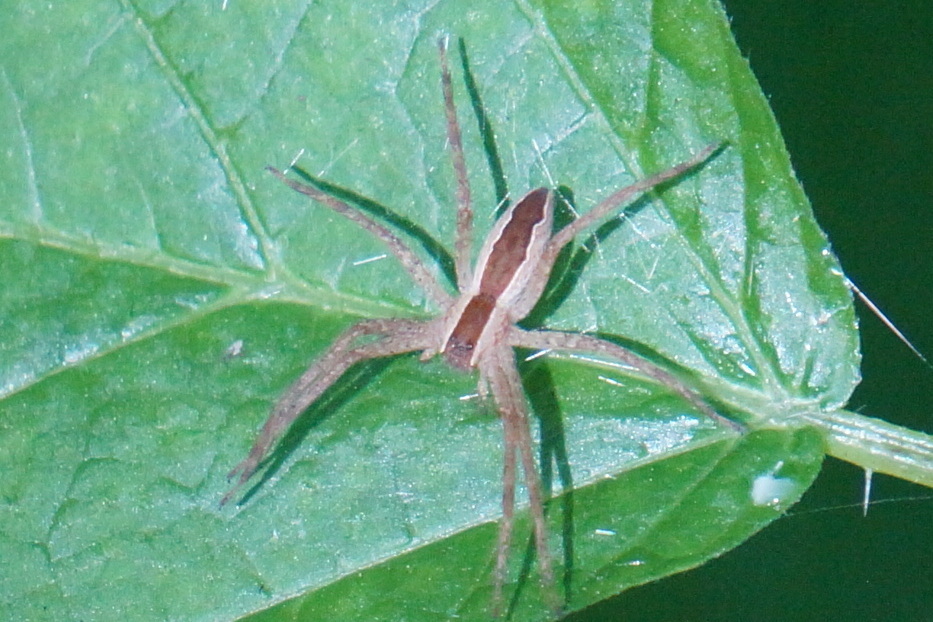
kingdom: Animalia
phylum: Arthropoda
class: Arachnida
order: Araneae
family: Pisauridae
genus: Pisaurina
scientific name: Pisaurina mira
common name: American nursery web spider
